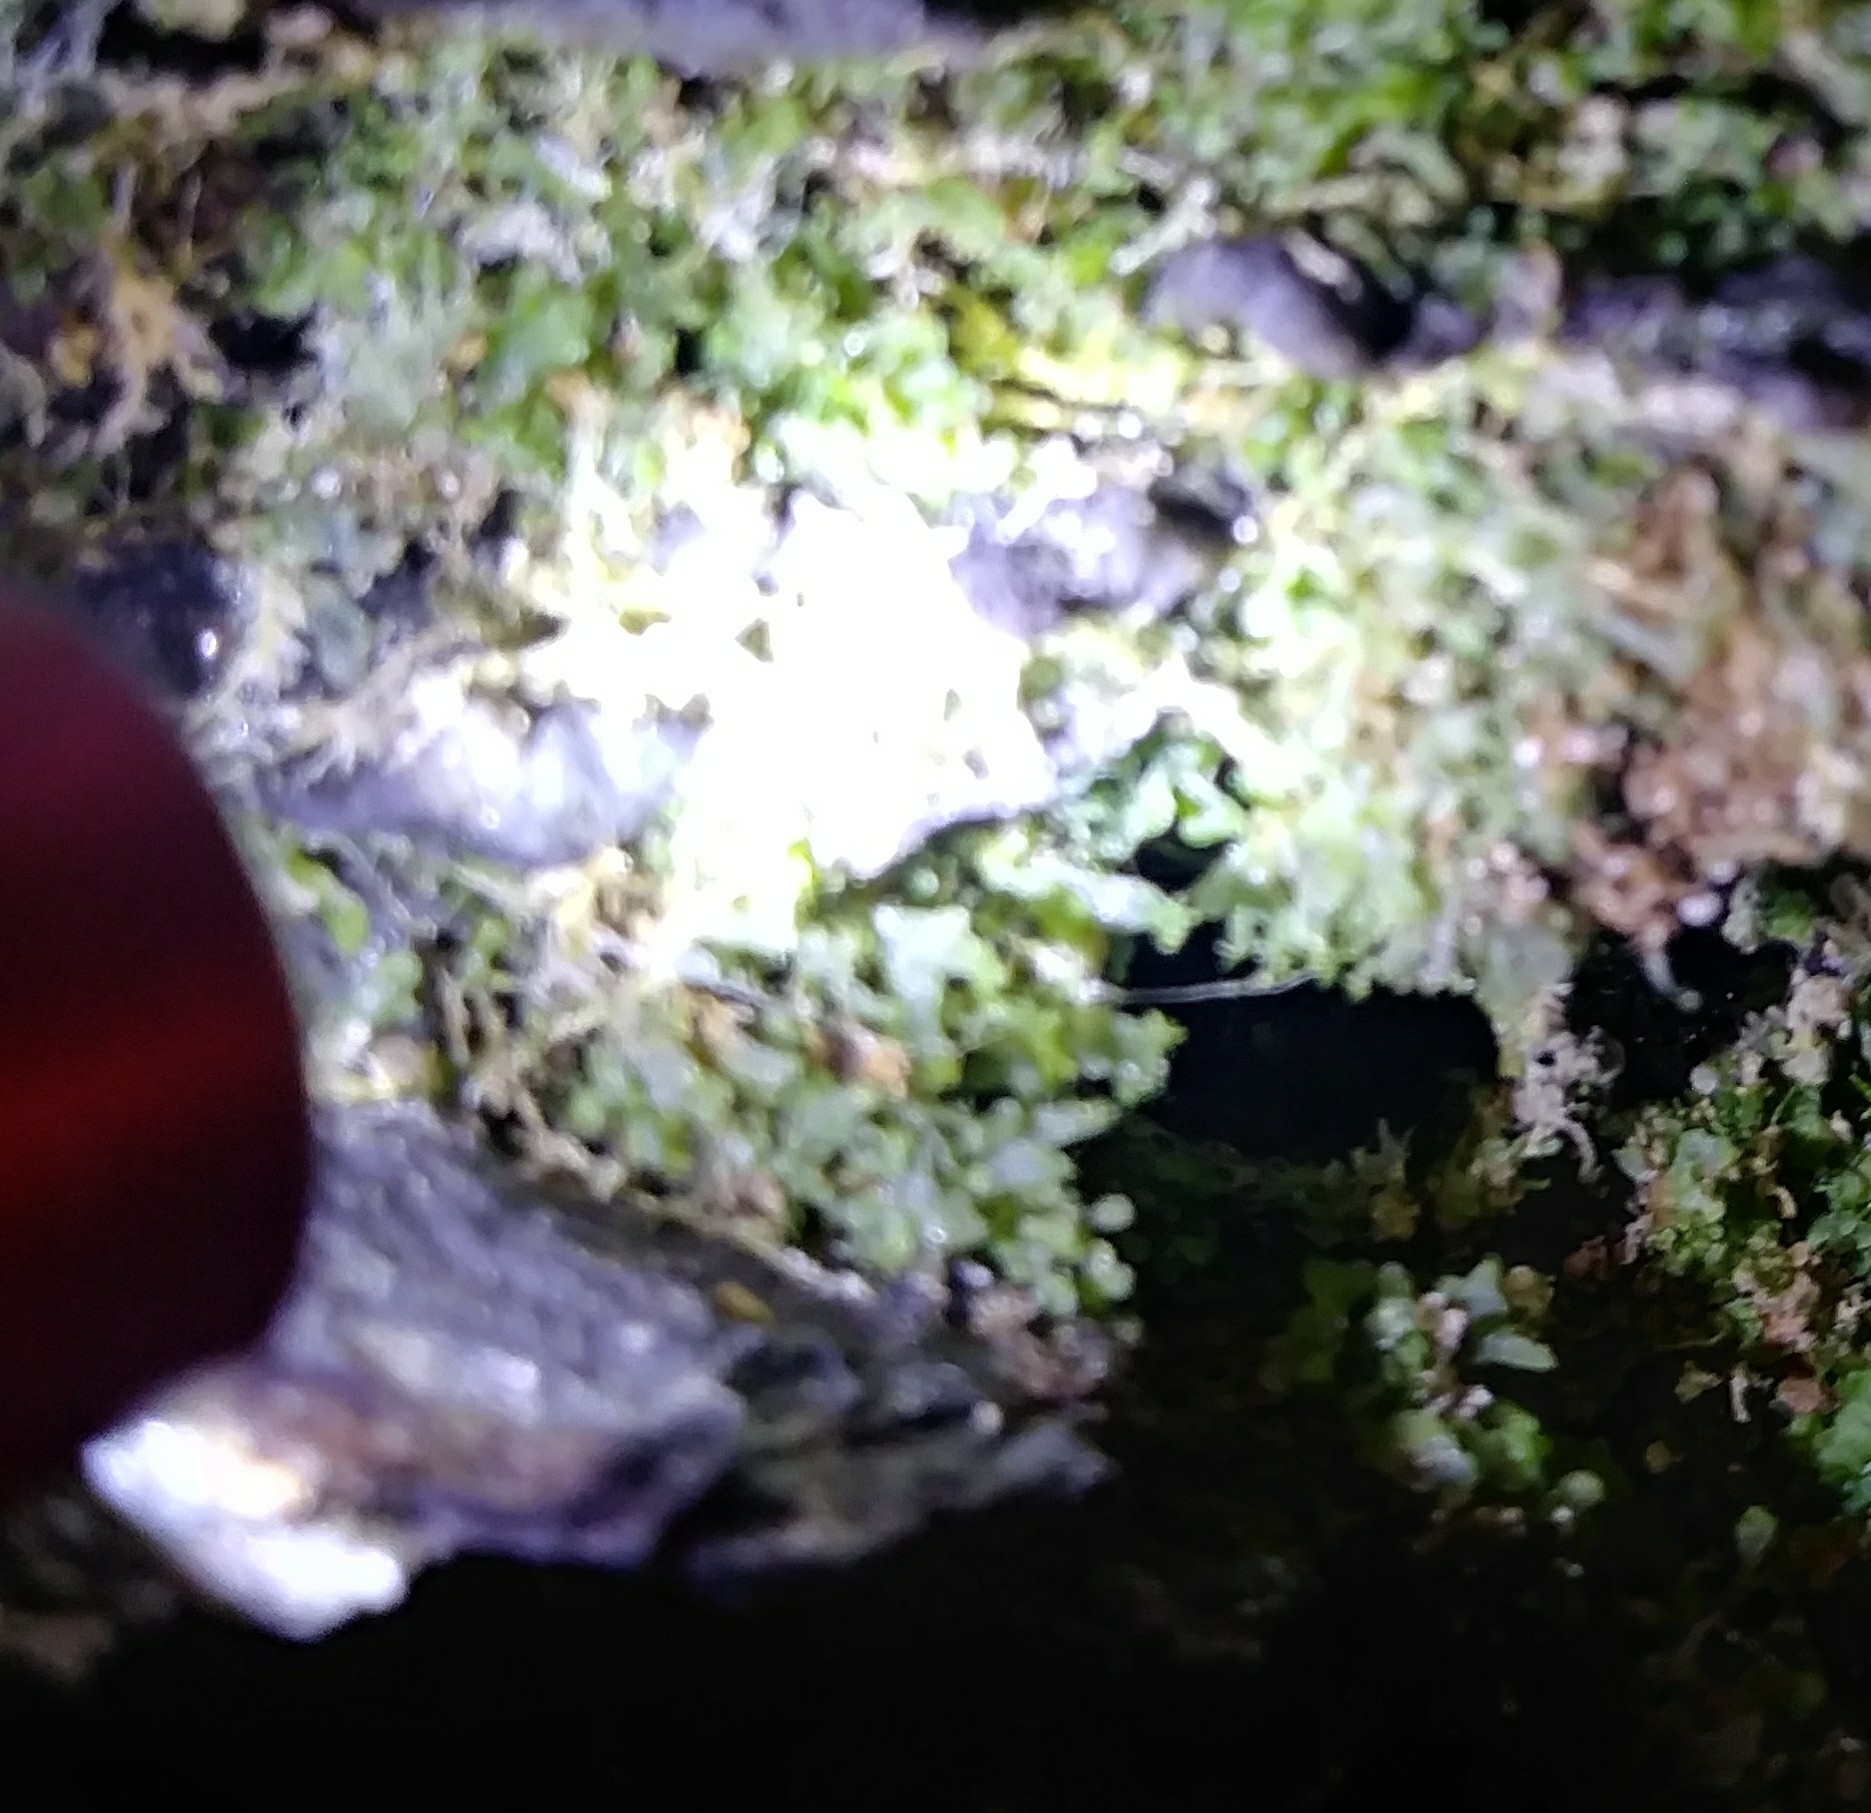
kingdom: Plantae
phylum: Tracheophyta
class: Polypodiopsida
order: Polypodiales
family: Pteridaceae
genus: Vittaria
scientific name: Vittaria appalachiana
